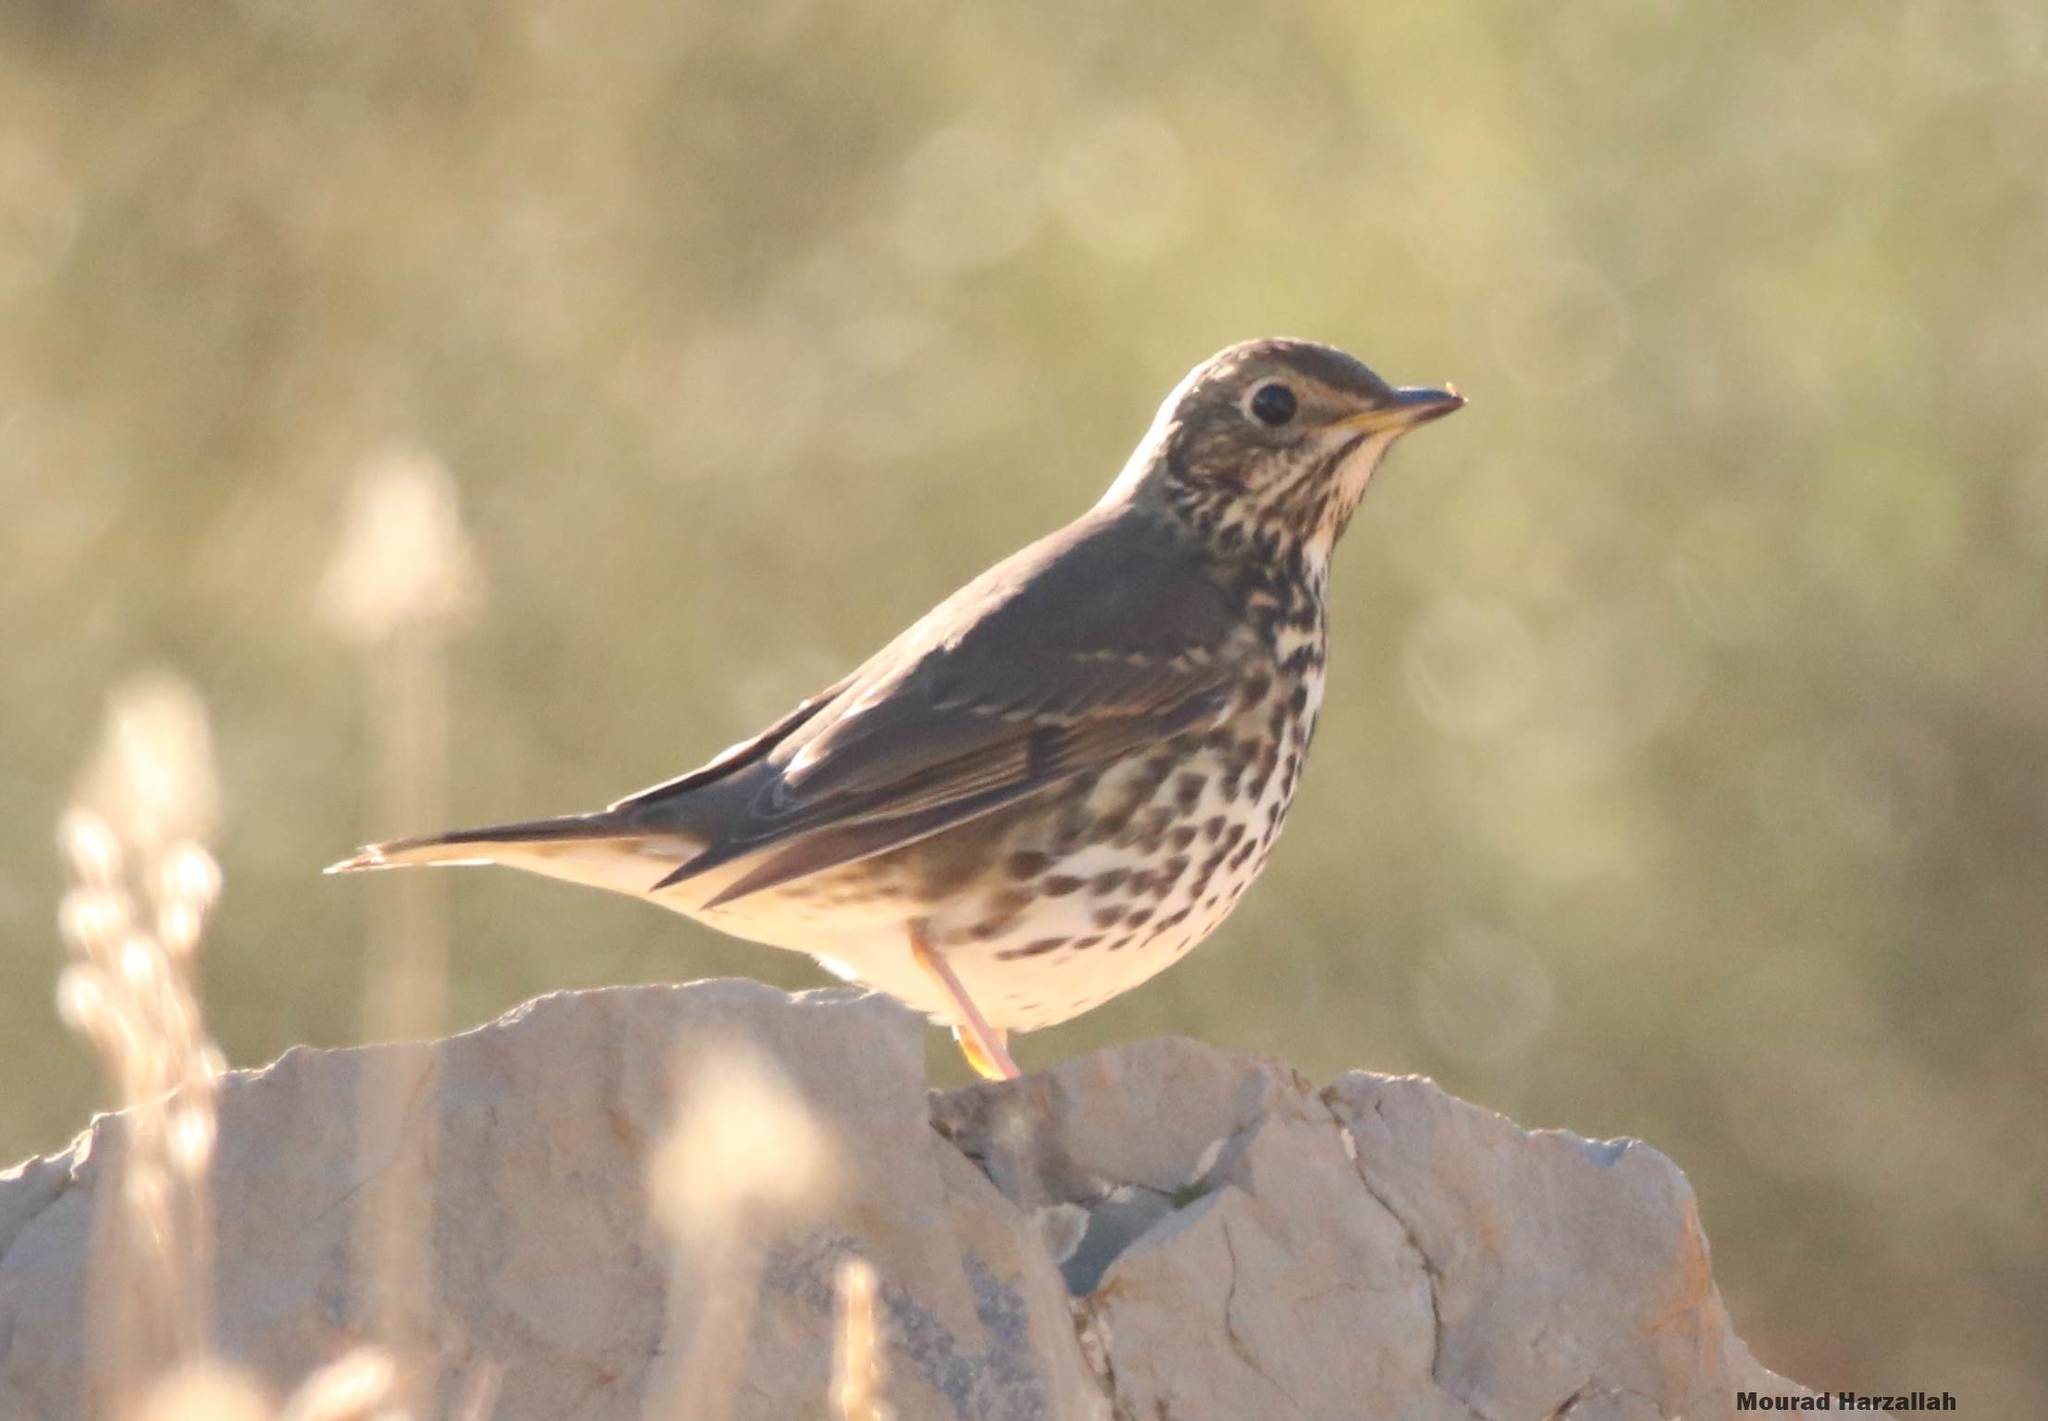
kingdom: Animalia
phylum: Chordata
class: Aves
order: Passeriformes
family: Turdidae
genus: Turdus
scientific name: Turdus philomelos
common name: Song thrush
